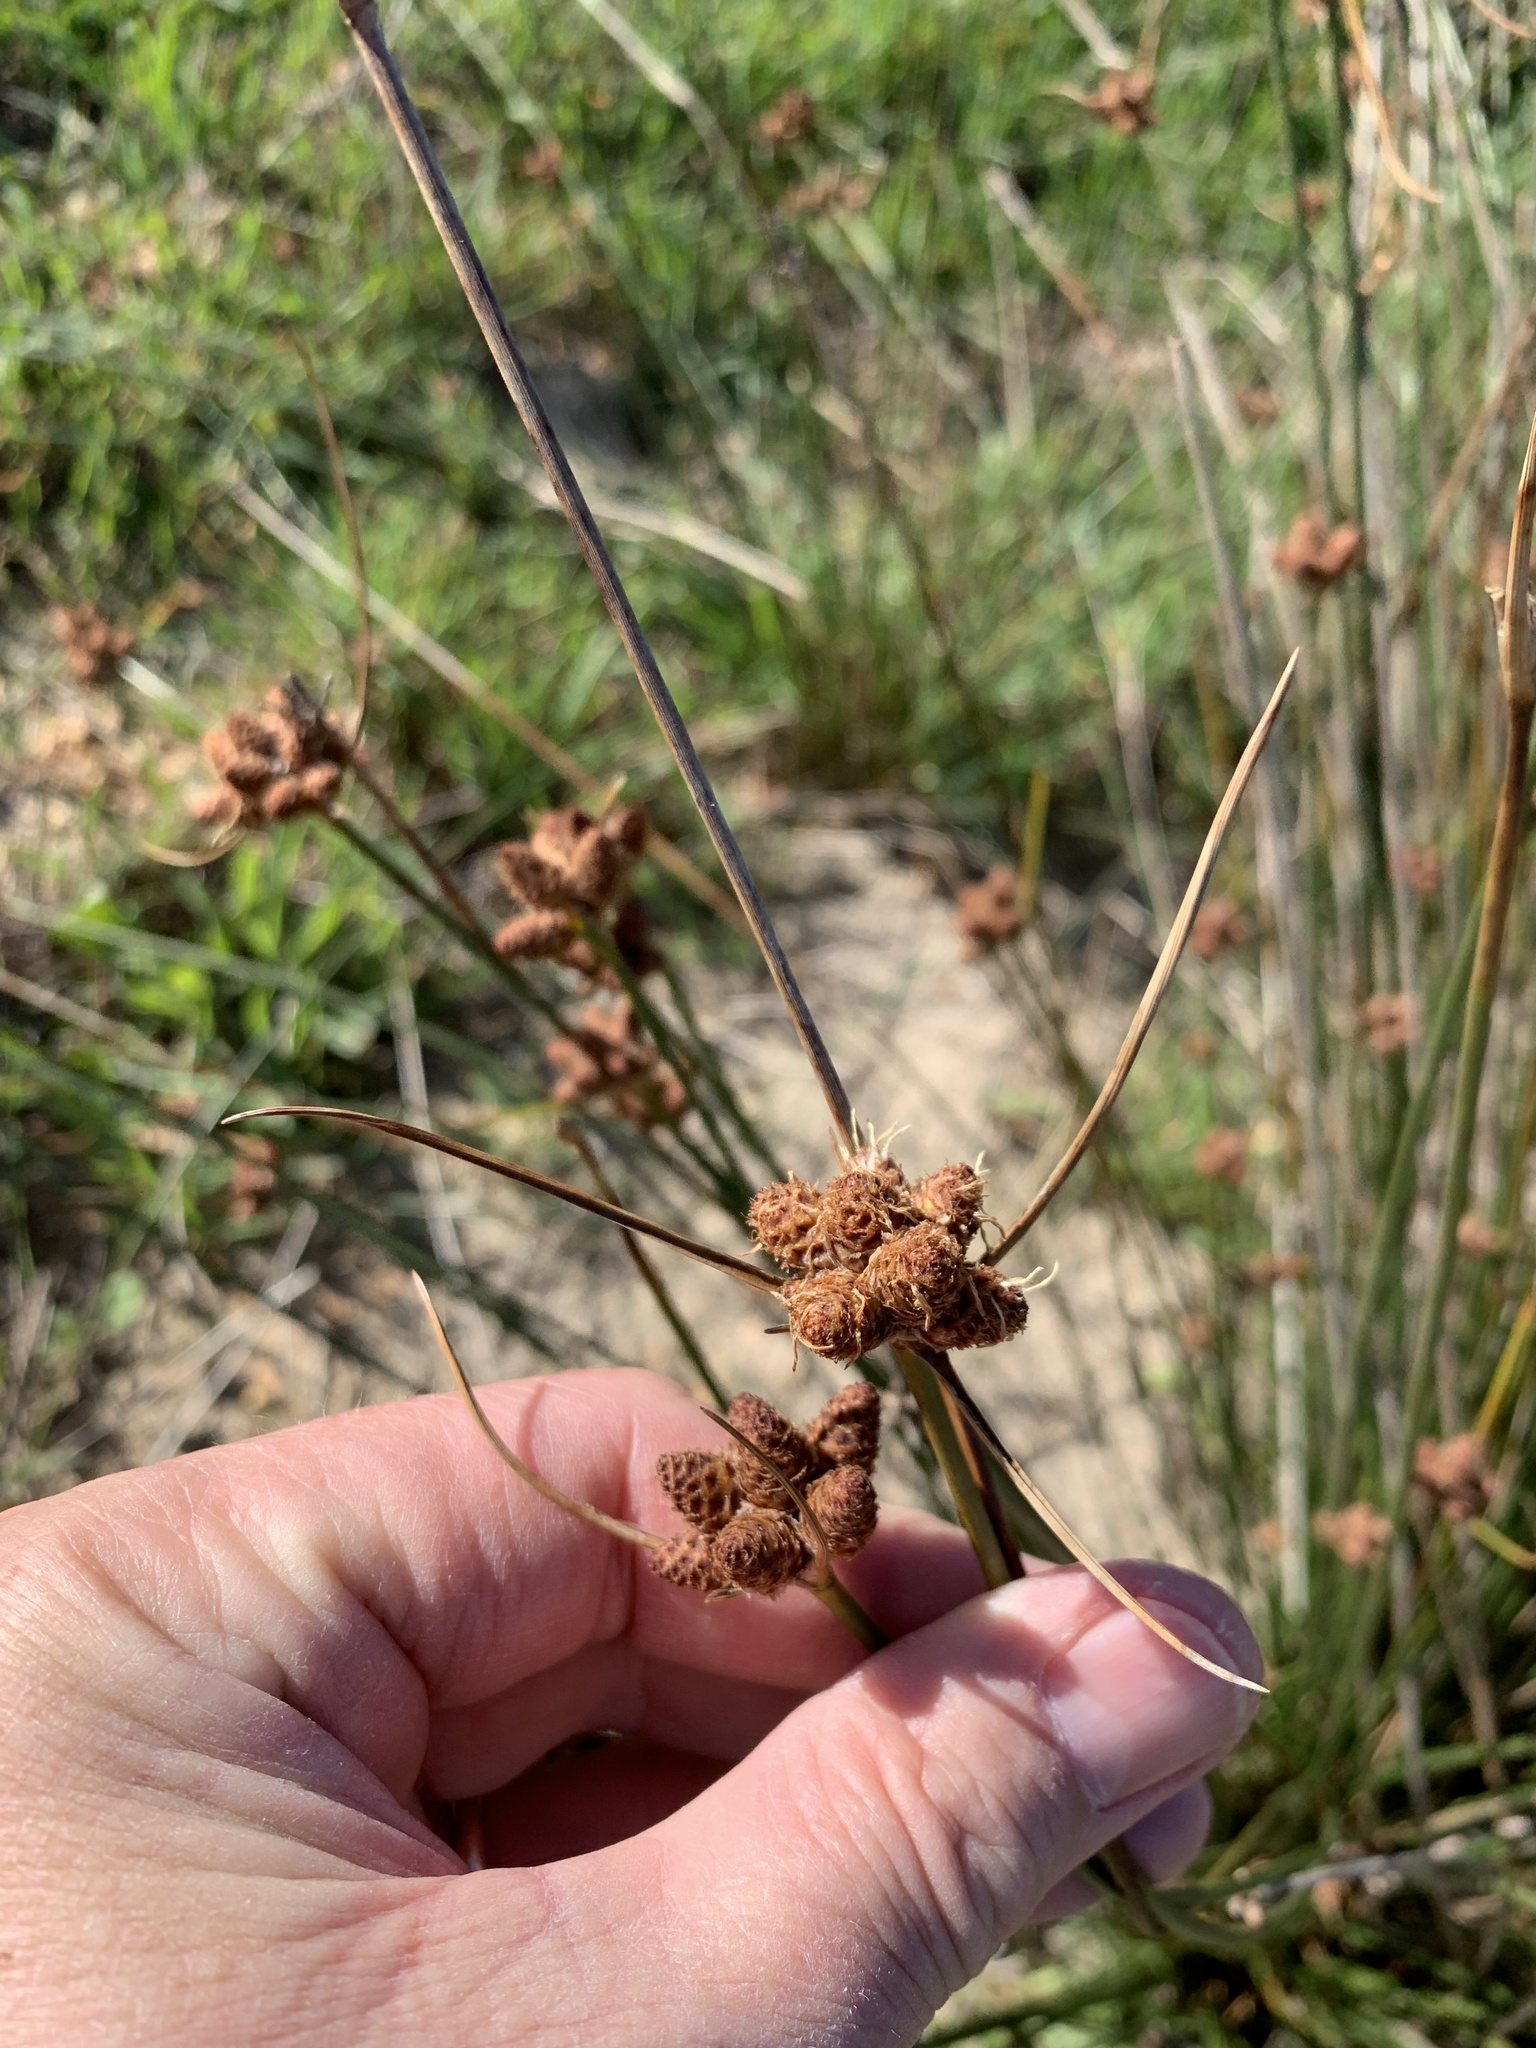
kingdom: Plantae
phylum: Tracheophyta
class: Liliopsida
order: Poales
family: Cyperaceae
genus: Hellmuthia
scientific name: Hellmuthia membranacea
